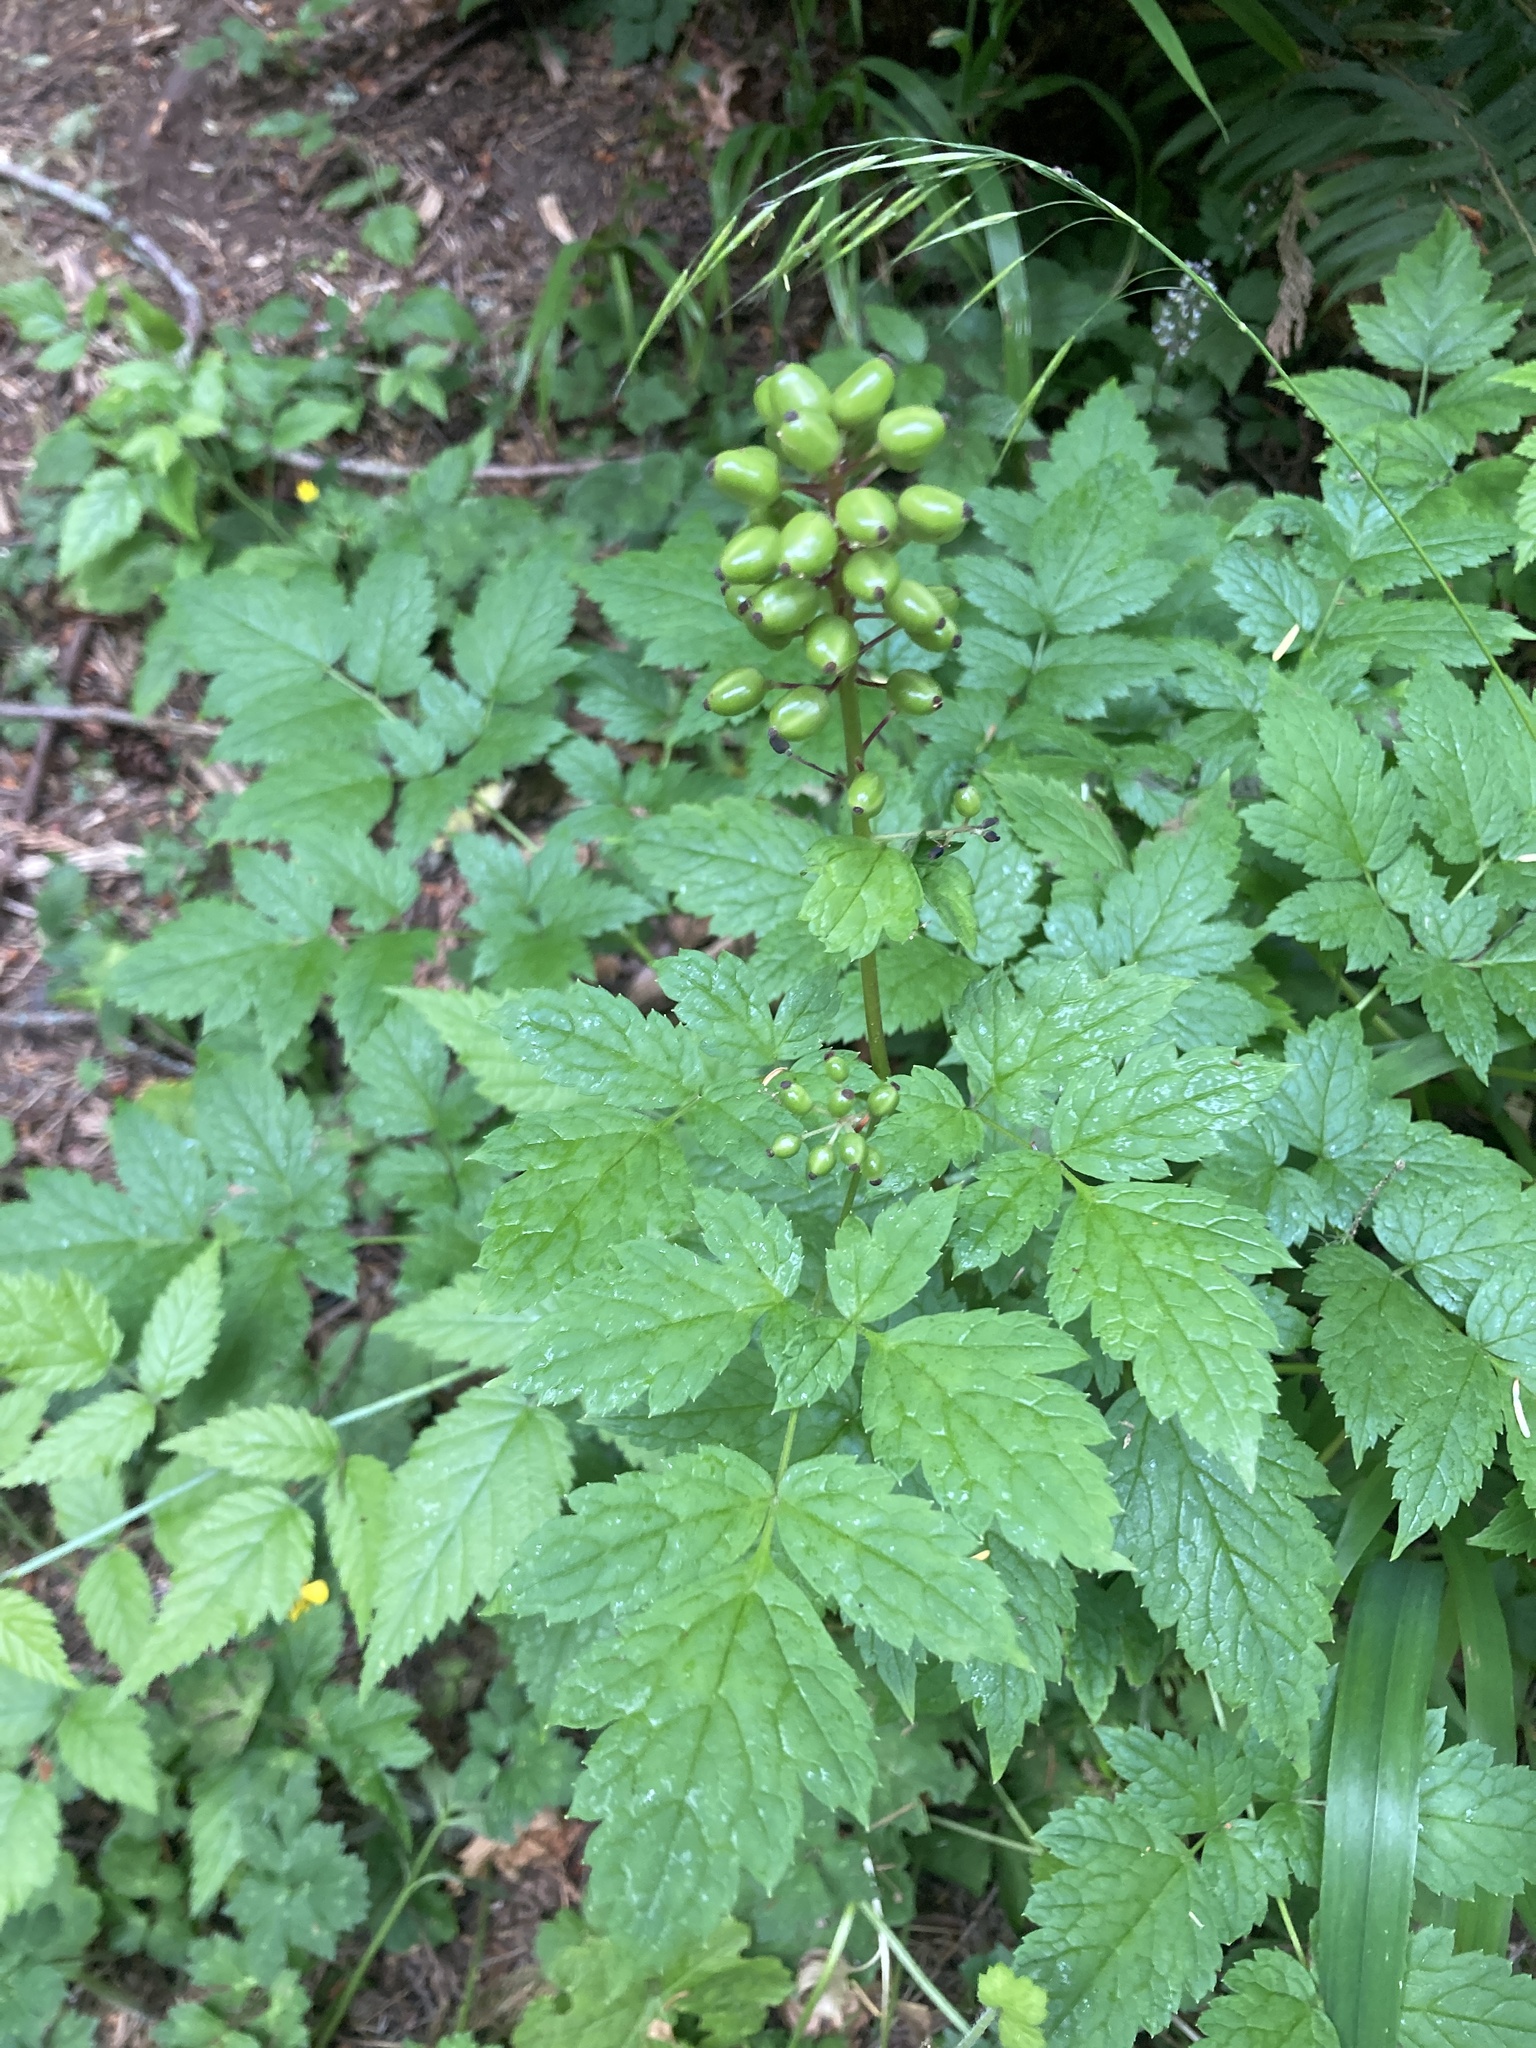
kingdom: Plantae
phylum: Tracheophyta
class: Magnoliopsida
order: Ranunculales
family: Ranunculaceae
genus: Actaea
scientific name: Actaea rubra
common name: Red baneberry
